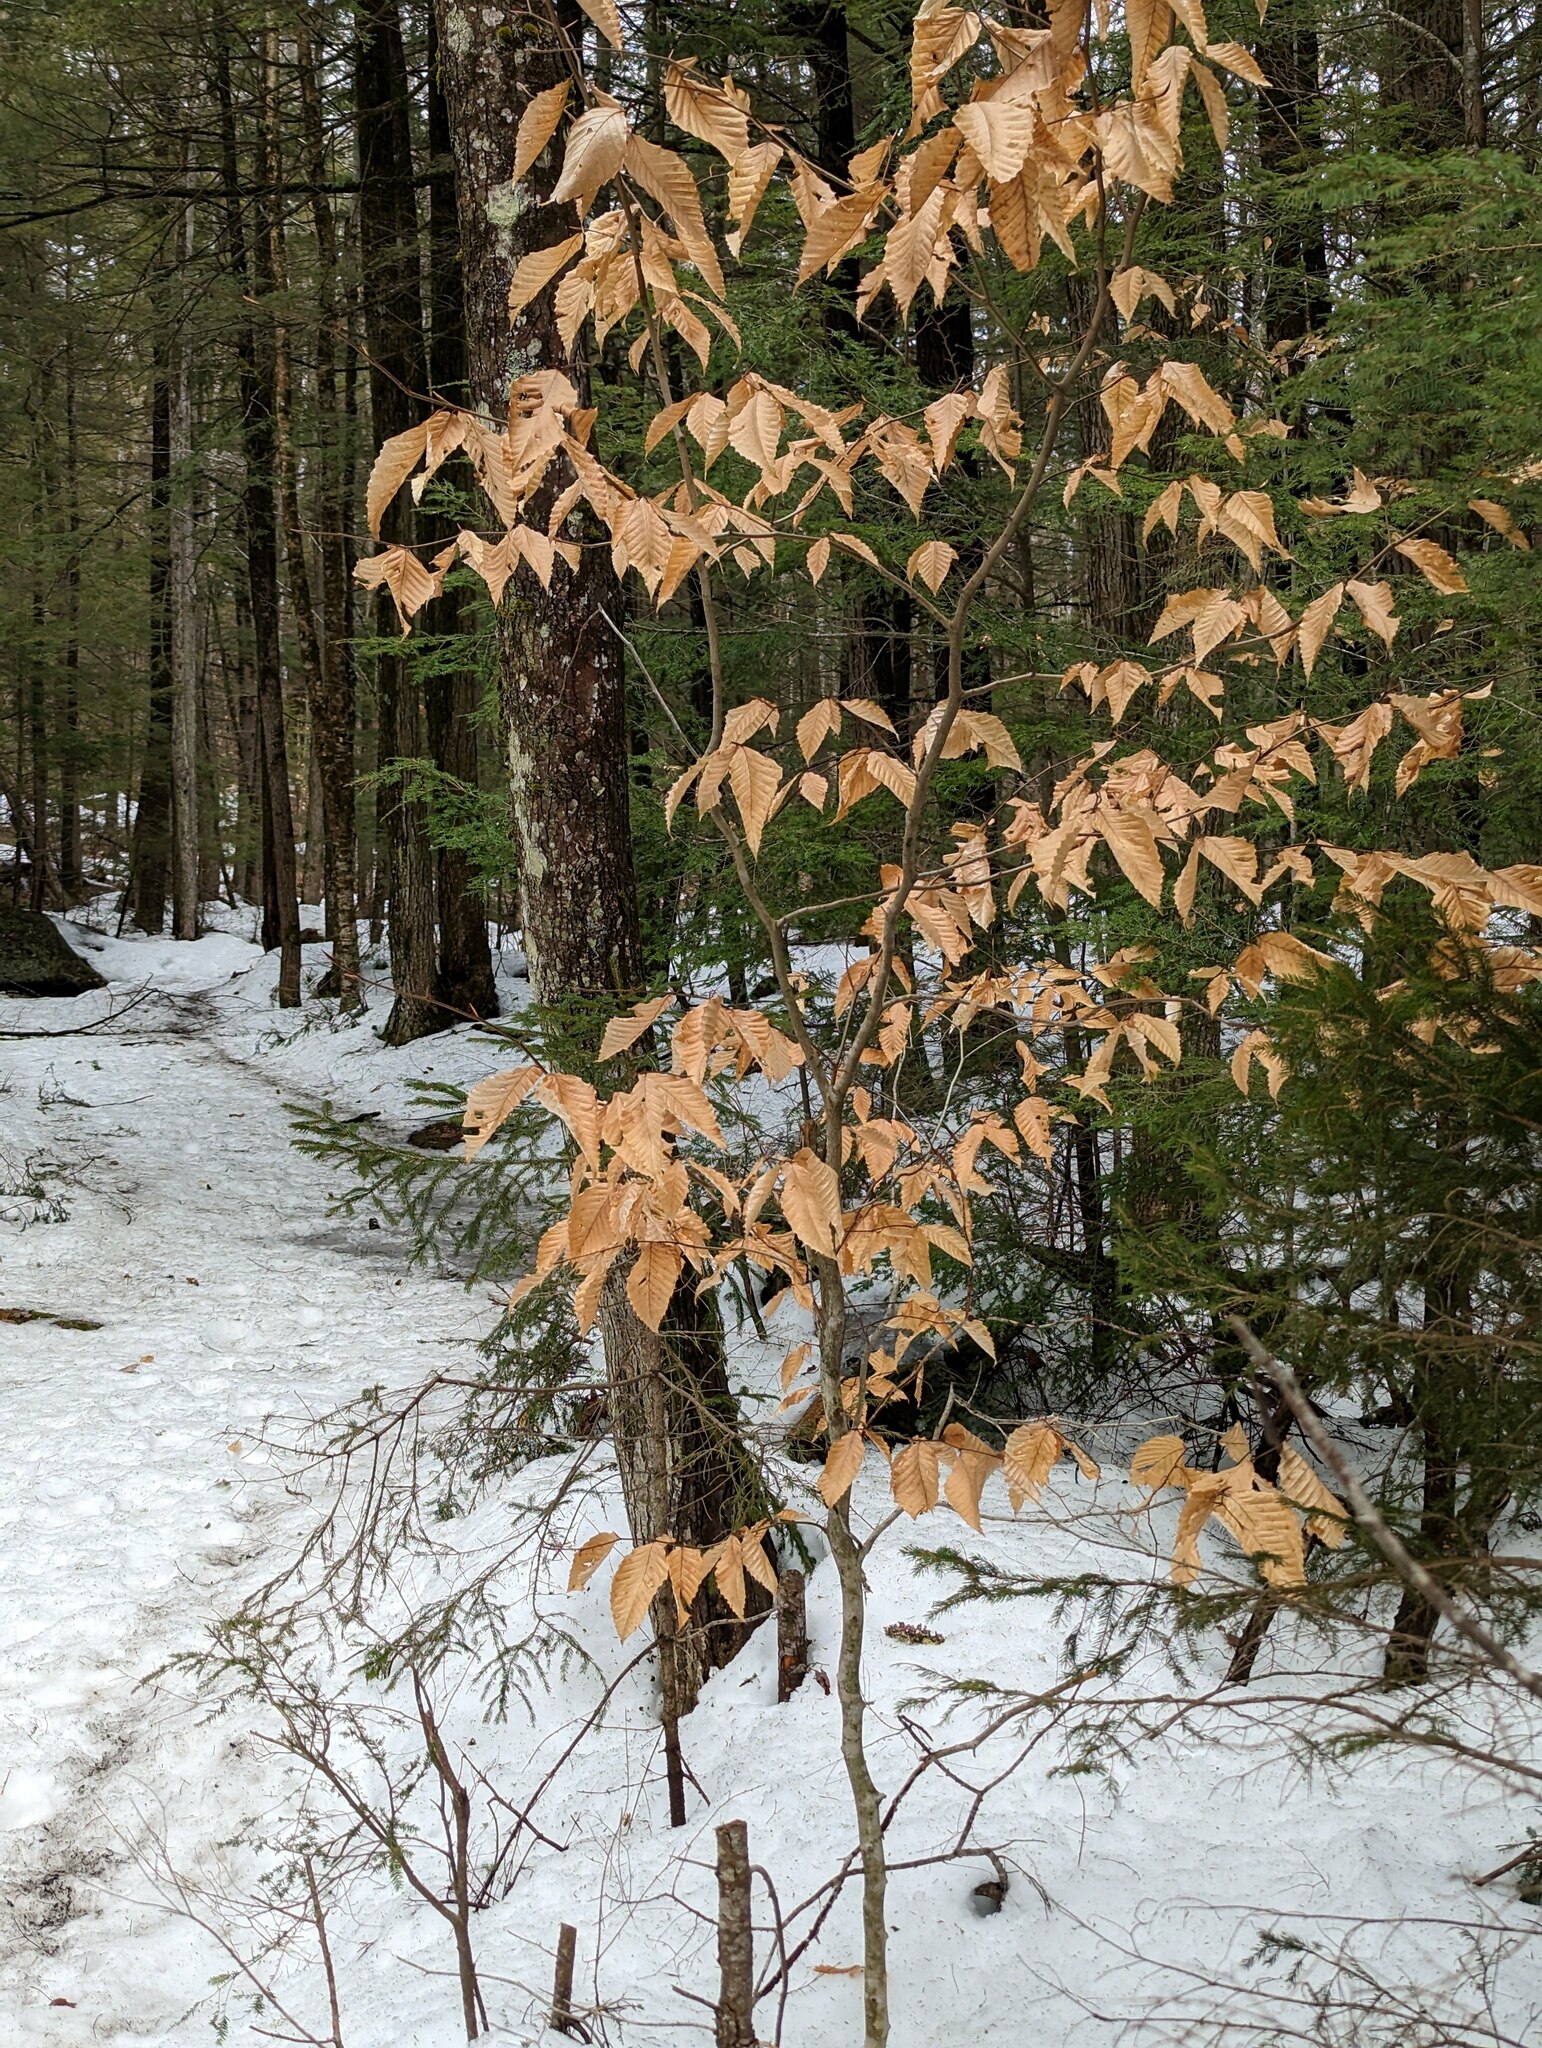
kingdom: Plantae
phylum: Tracheophyta
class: Magnoliopsida
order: Fagales
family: Fagaceae
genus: Fagus
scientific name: Fagus grandifolia
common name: American beech
